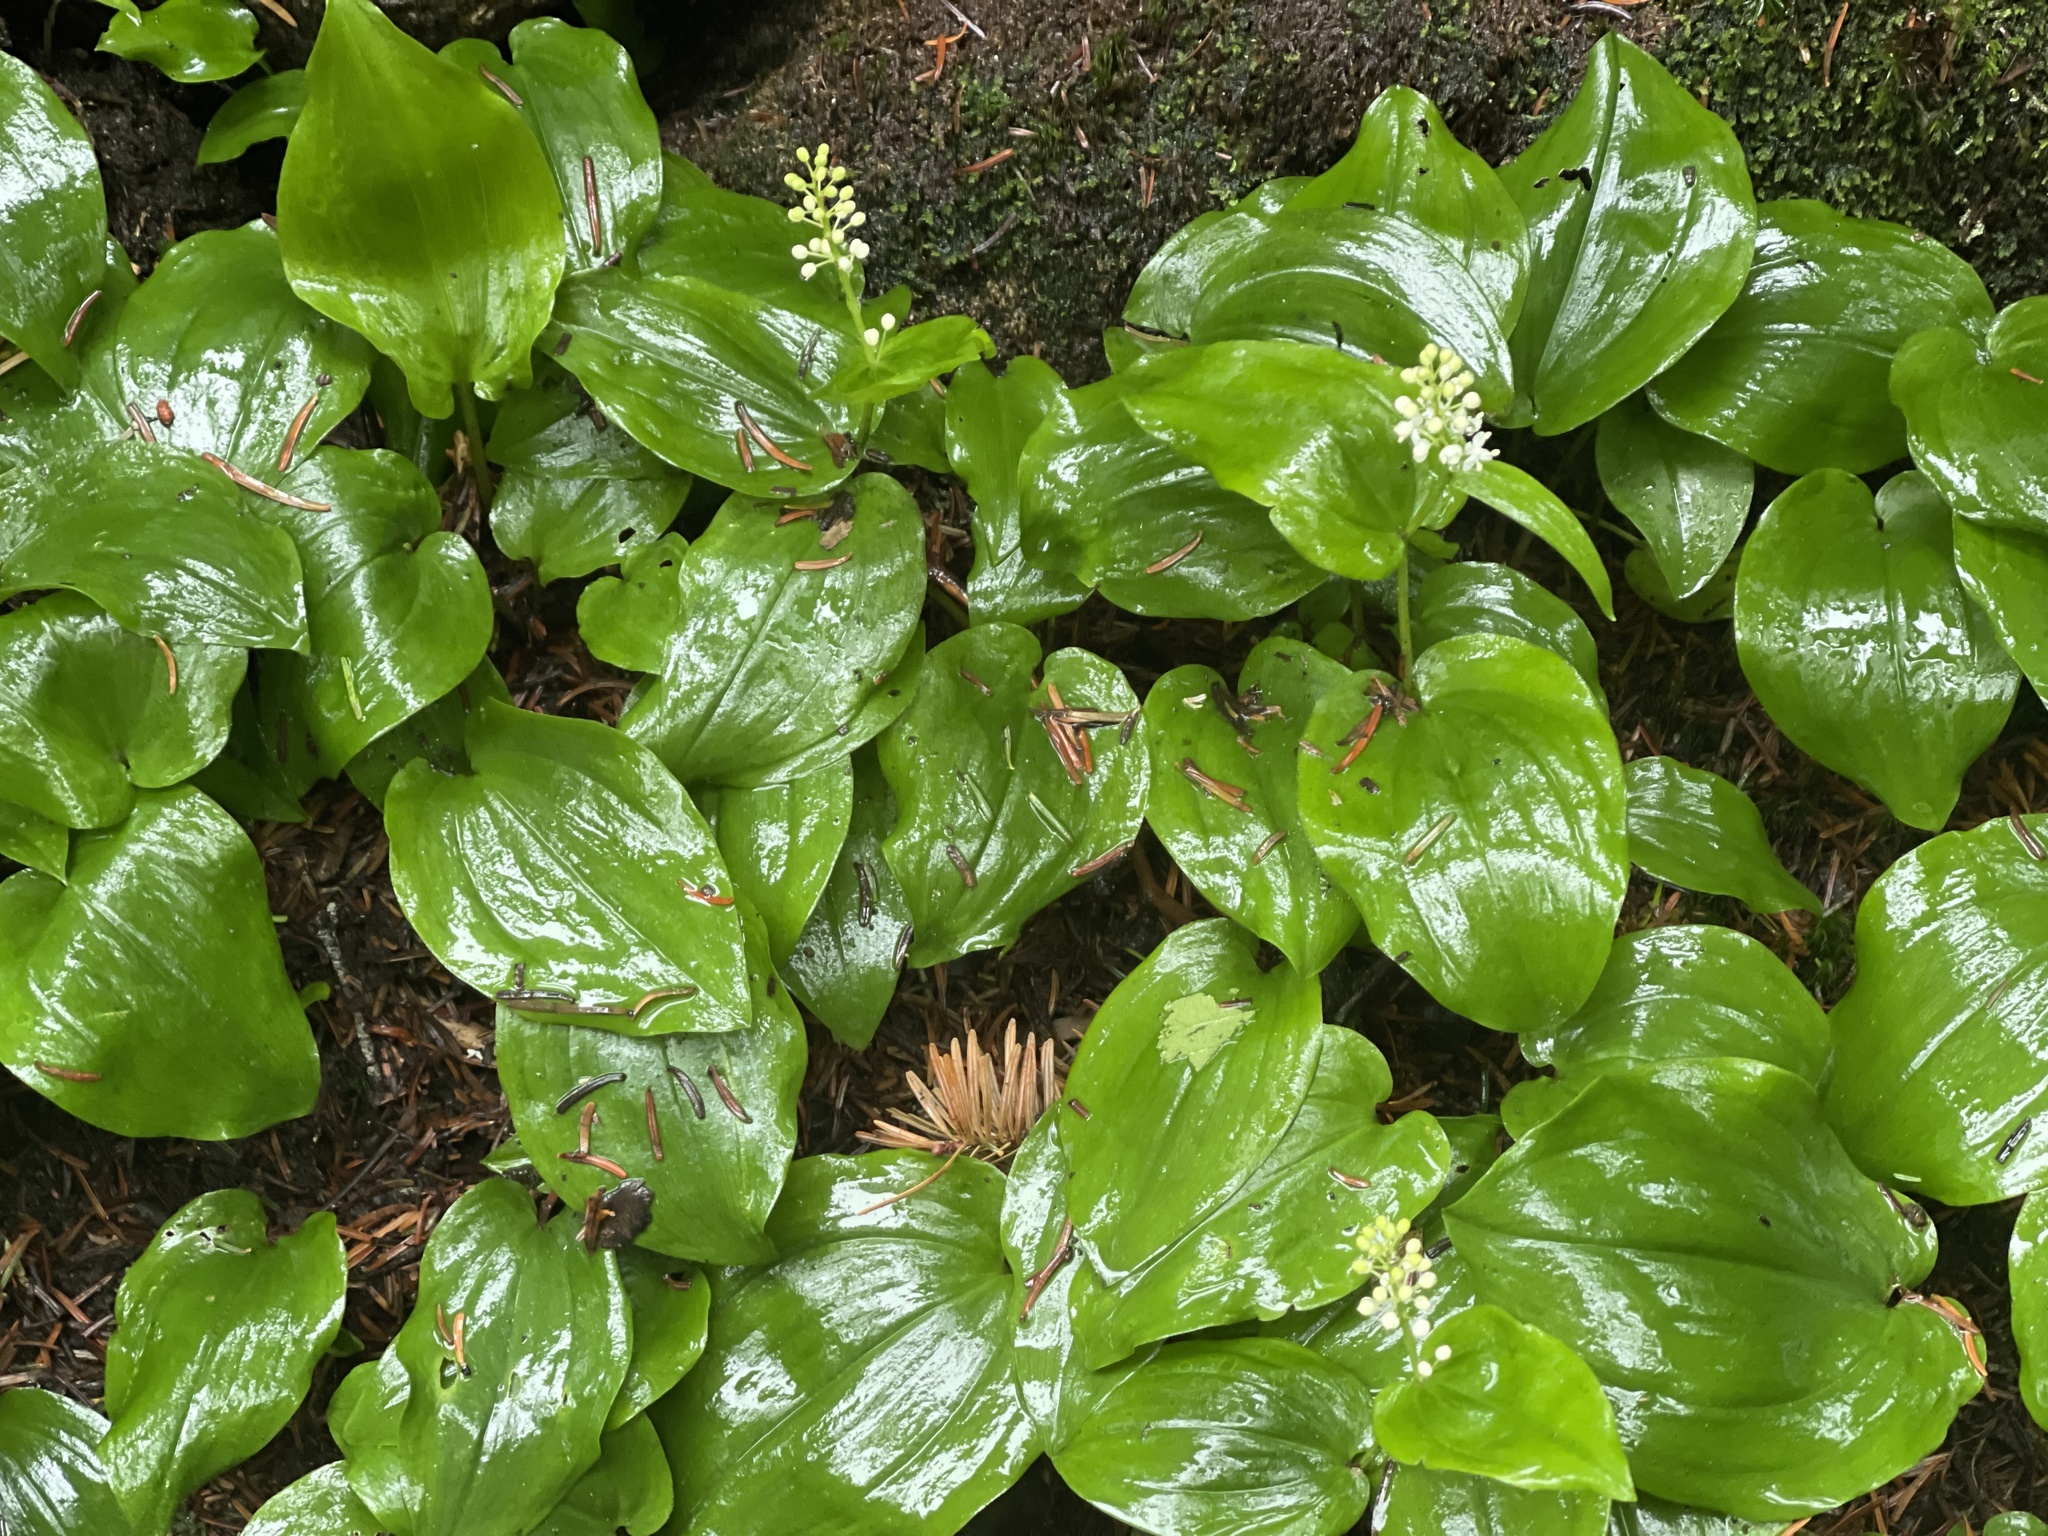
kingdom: Plantae
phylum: Tracheophyta
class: Liliopsida
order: Asparagales
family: Asparagaceae
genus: Maianthemum
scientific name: Maianthemum canadense
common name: False lily-of-the-valley
